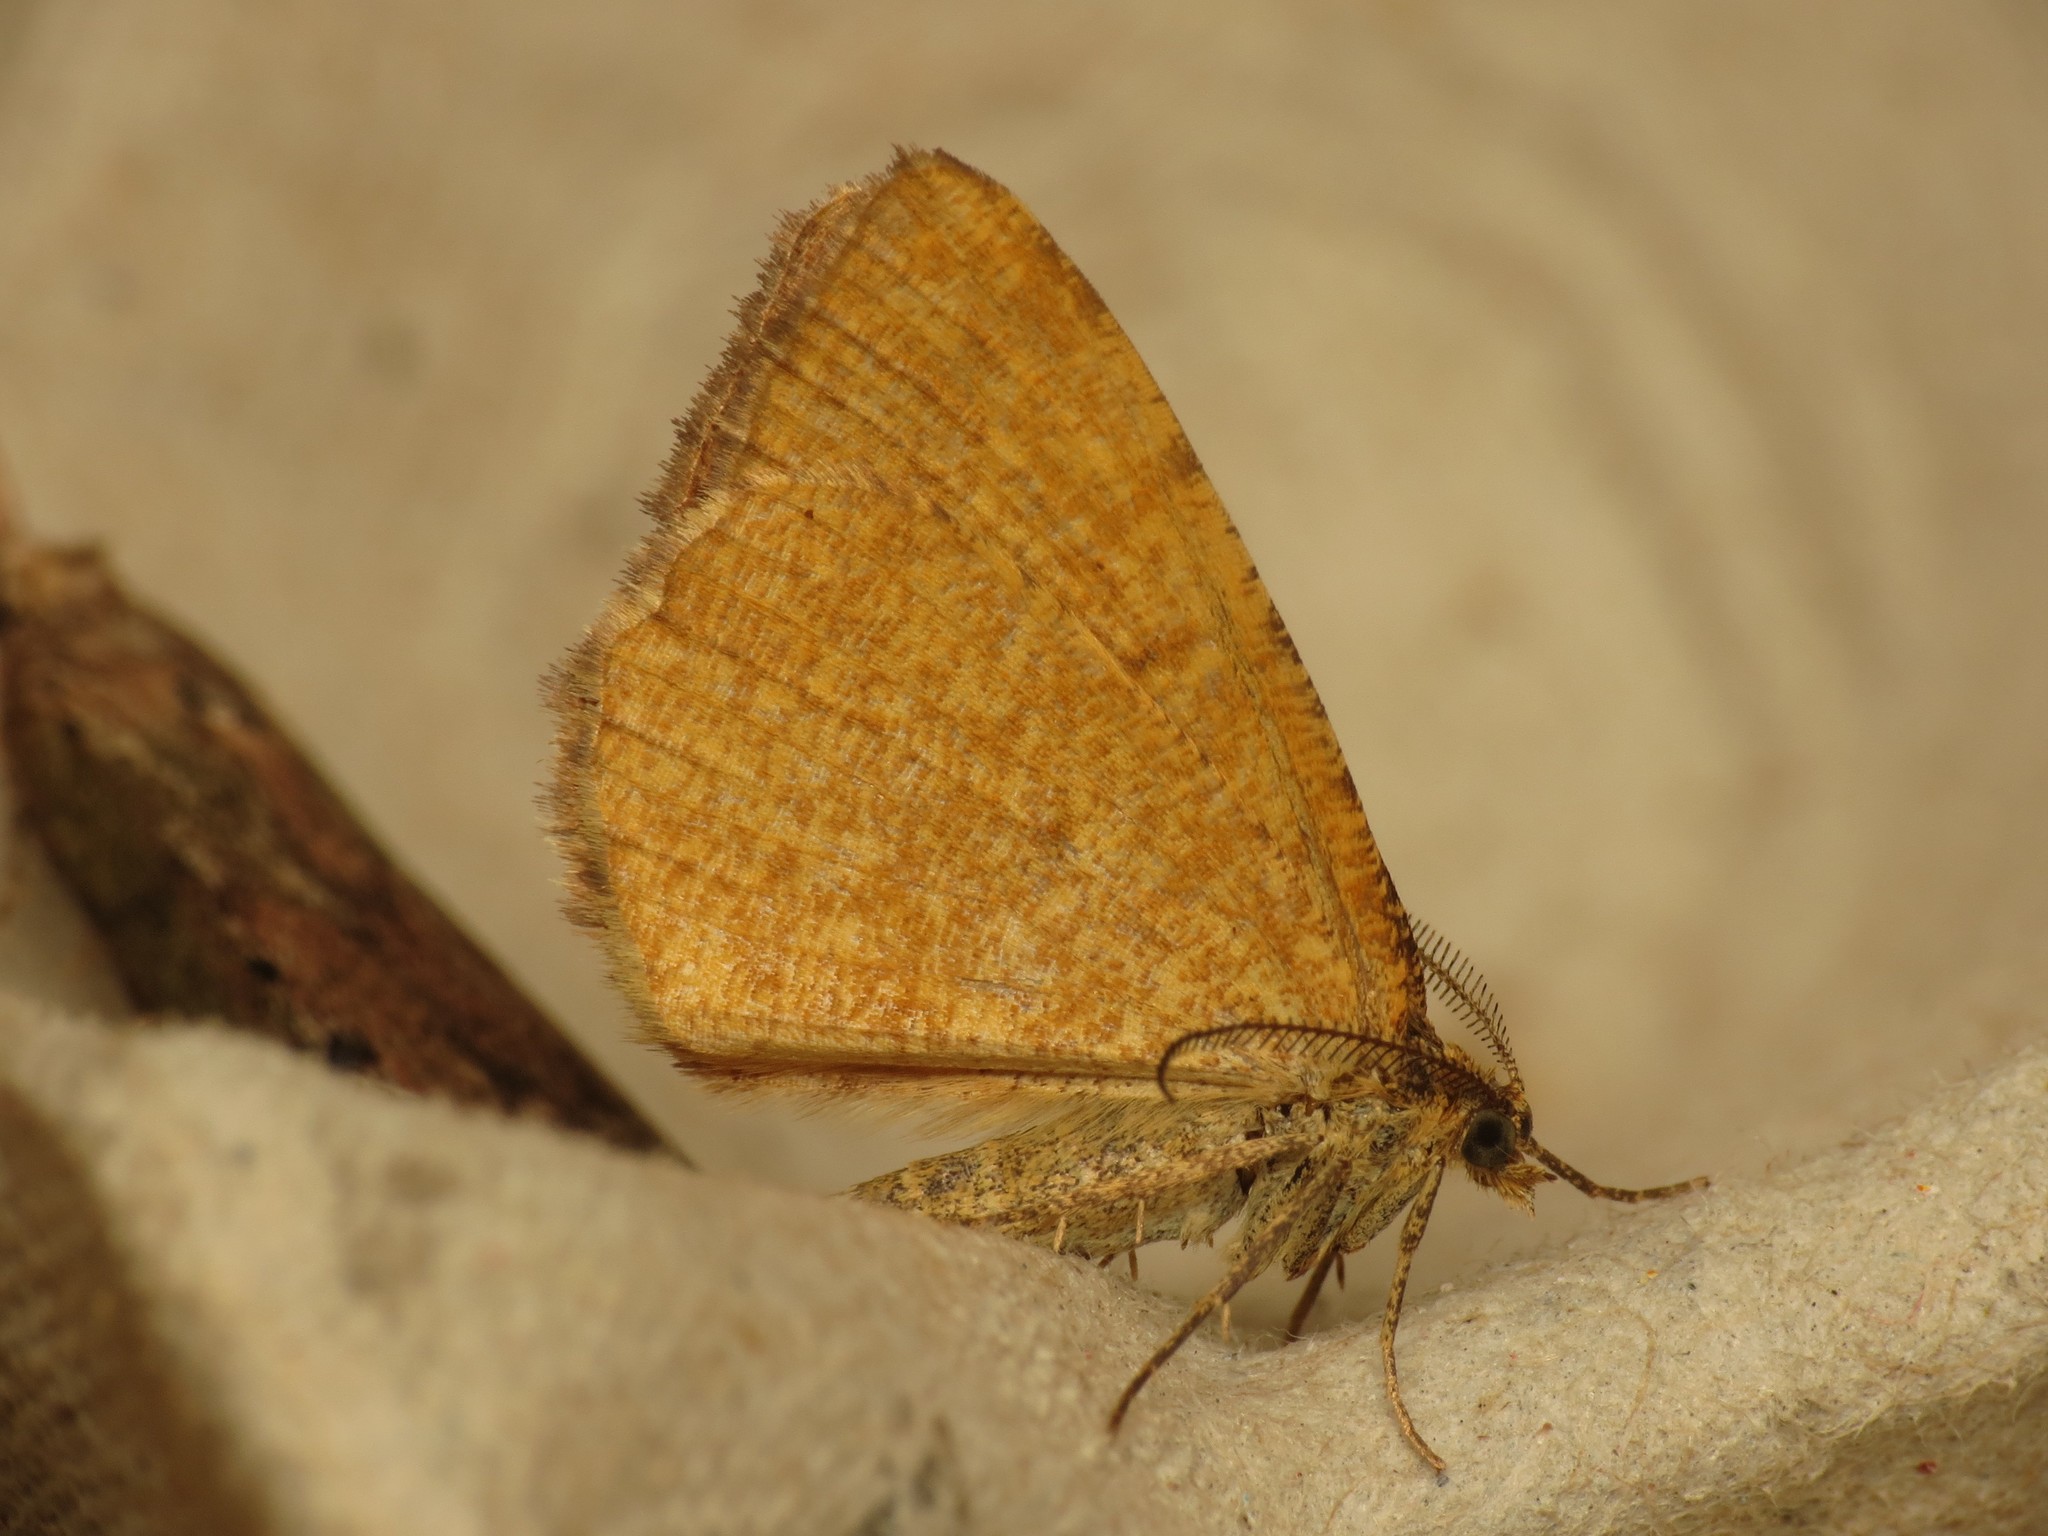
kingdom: Animalia
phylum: Arthropoda
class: Insecta
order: Lepidoptera
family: Geometridae
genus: Macaria
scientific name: Macaria brunneata
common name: Rannoch looper
